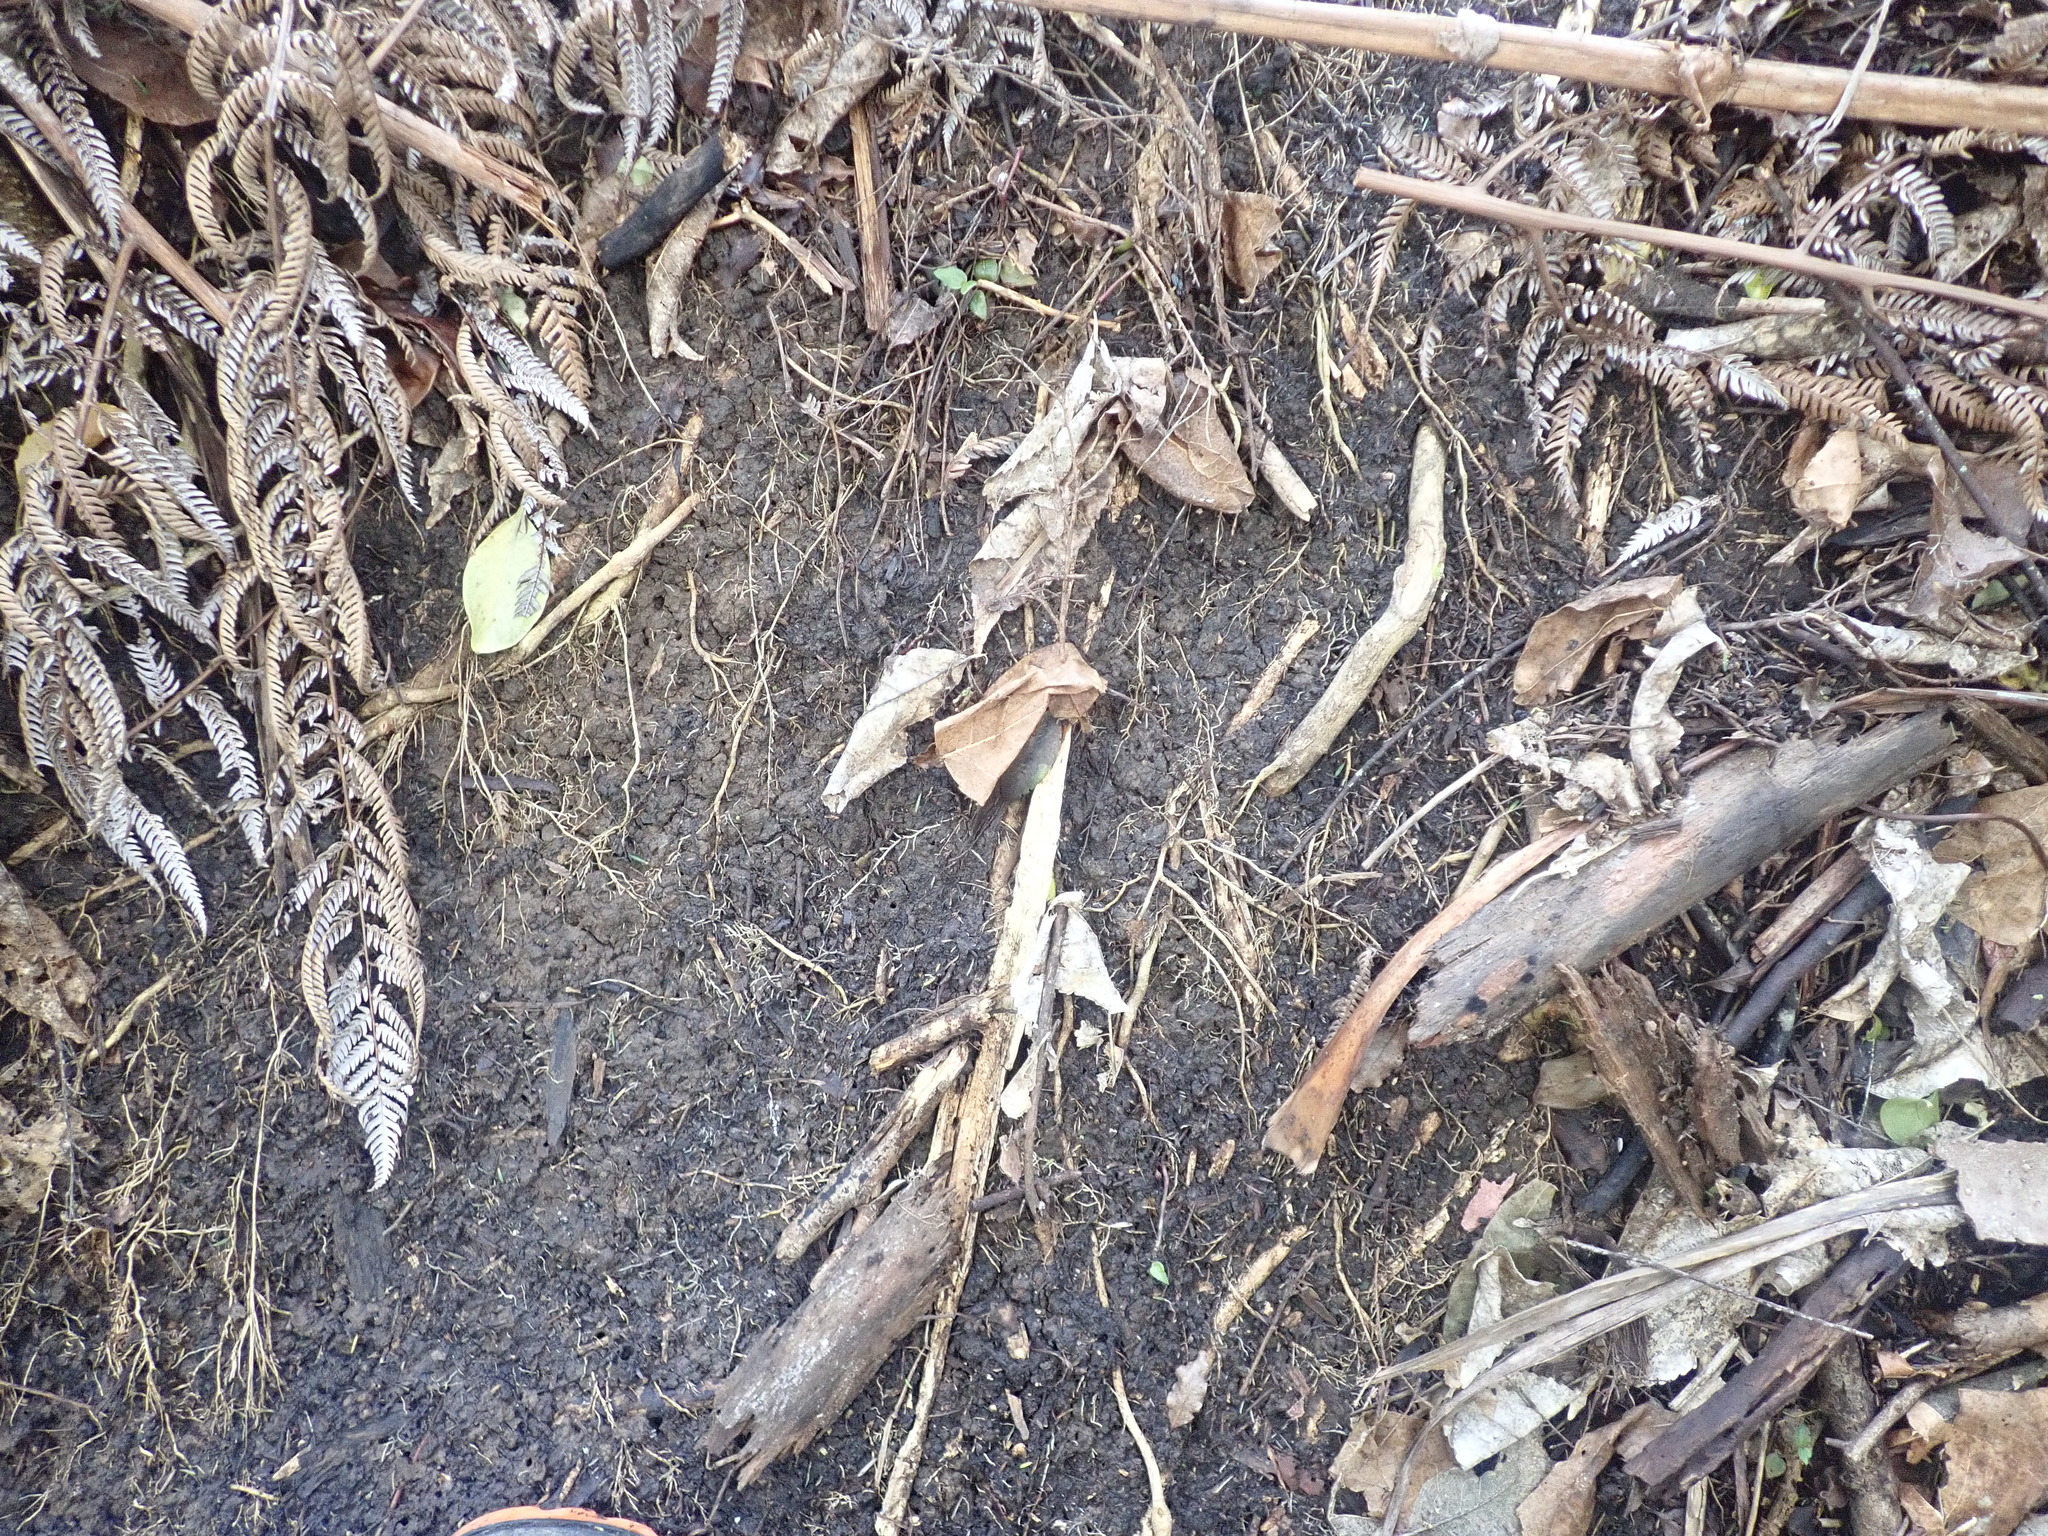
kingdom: Plantae
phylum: Tracheophyta
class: Magnoliopsida
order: Malpighiales
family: Violaceae
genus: Melicytus
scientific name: Melicytus ramiflorus
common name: Mahoe
